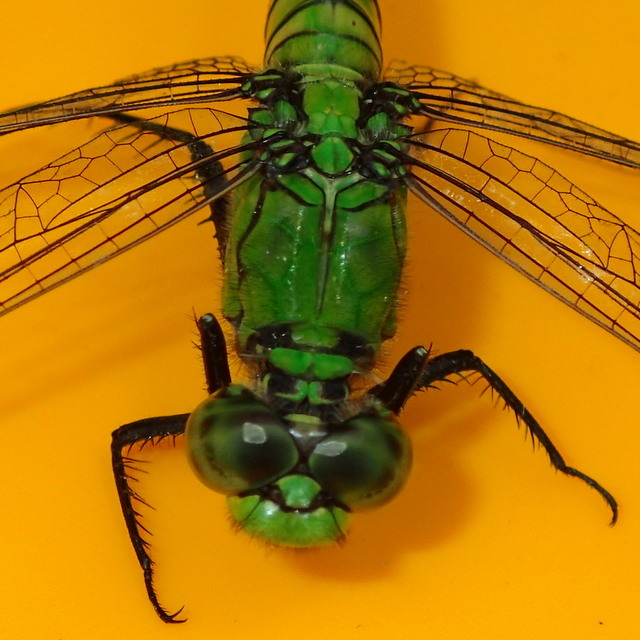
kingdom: Animalia
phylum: Arthropoda
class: Insecta
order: Odonata
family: Libellulidae
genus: Erythemis
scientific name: Erythemis simplicicollis
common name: Eastern pondhawk
